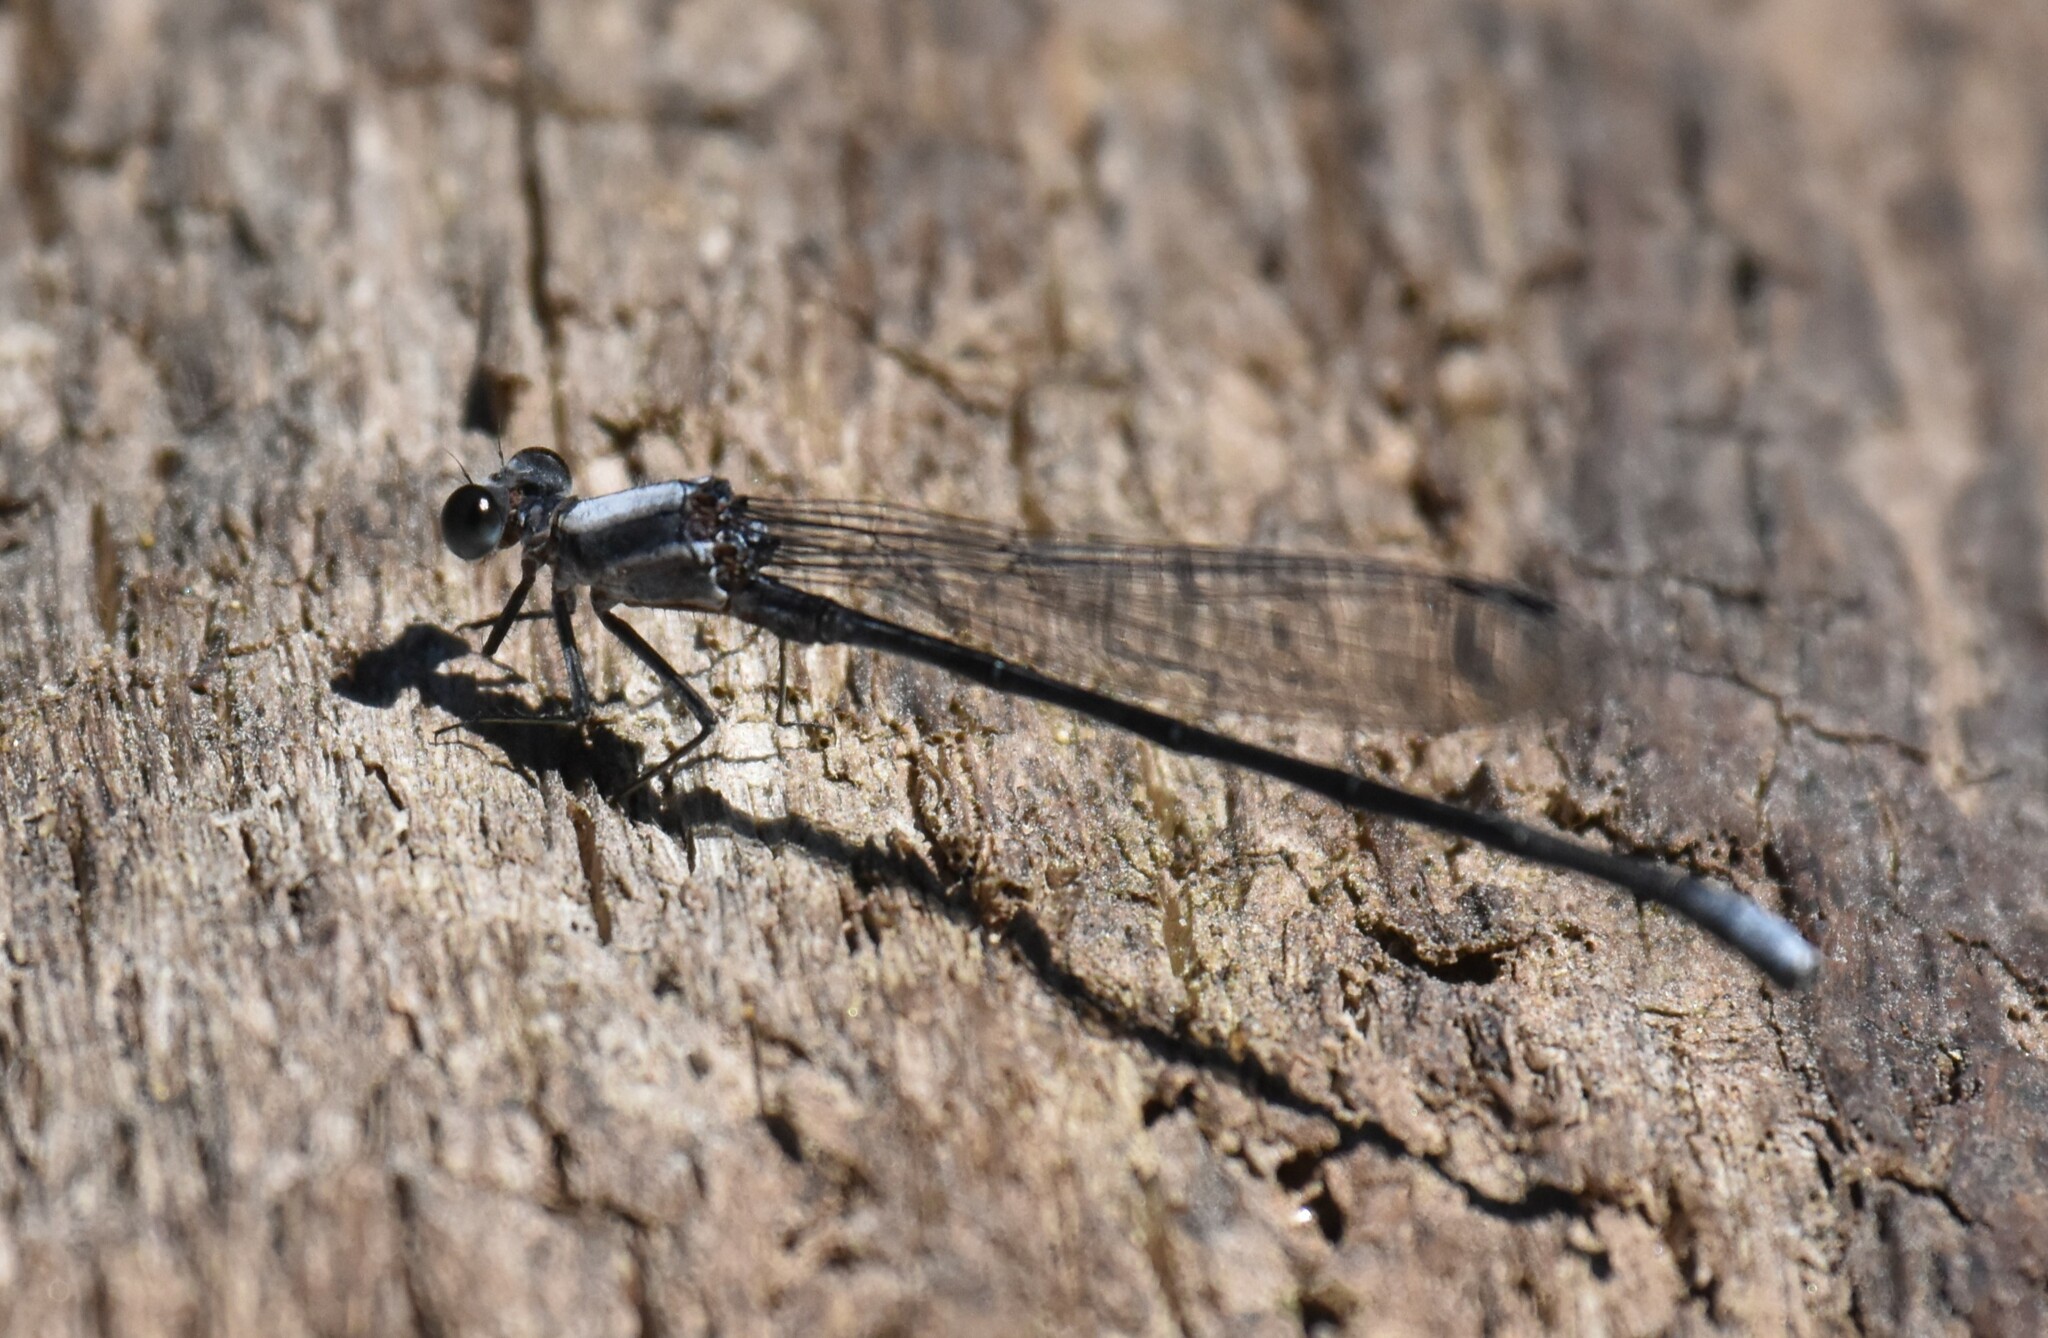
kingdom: Animalia
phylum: Arthropoda
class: Insecta
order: Odonata
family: Coenagrionidae
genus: Argia
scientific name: Argia moesta
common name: Powdered dancer
